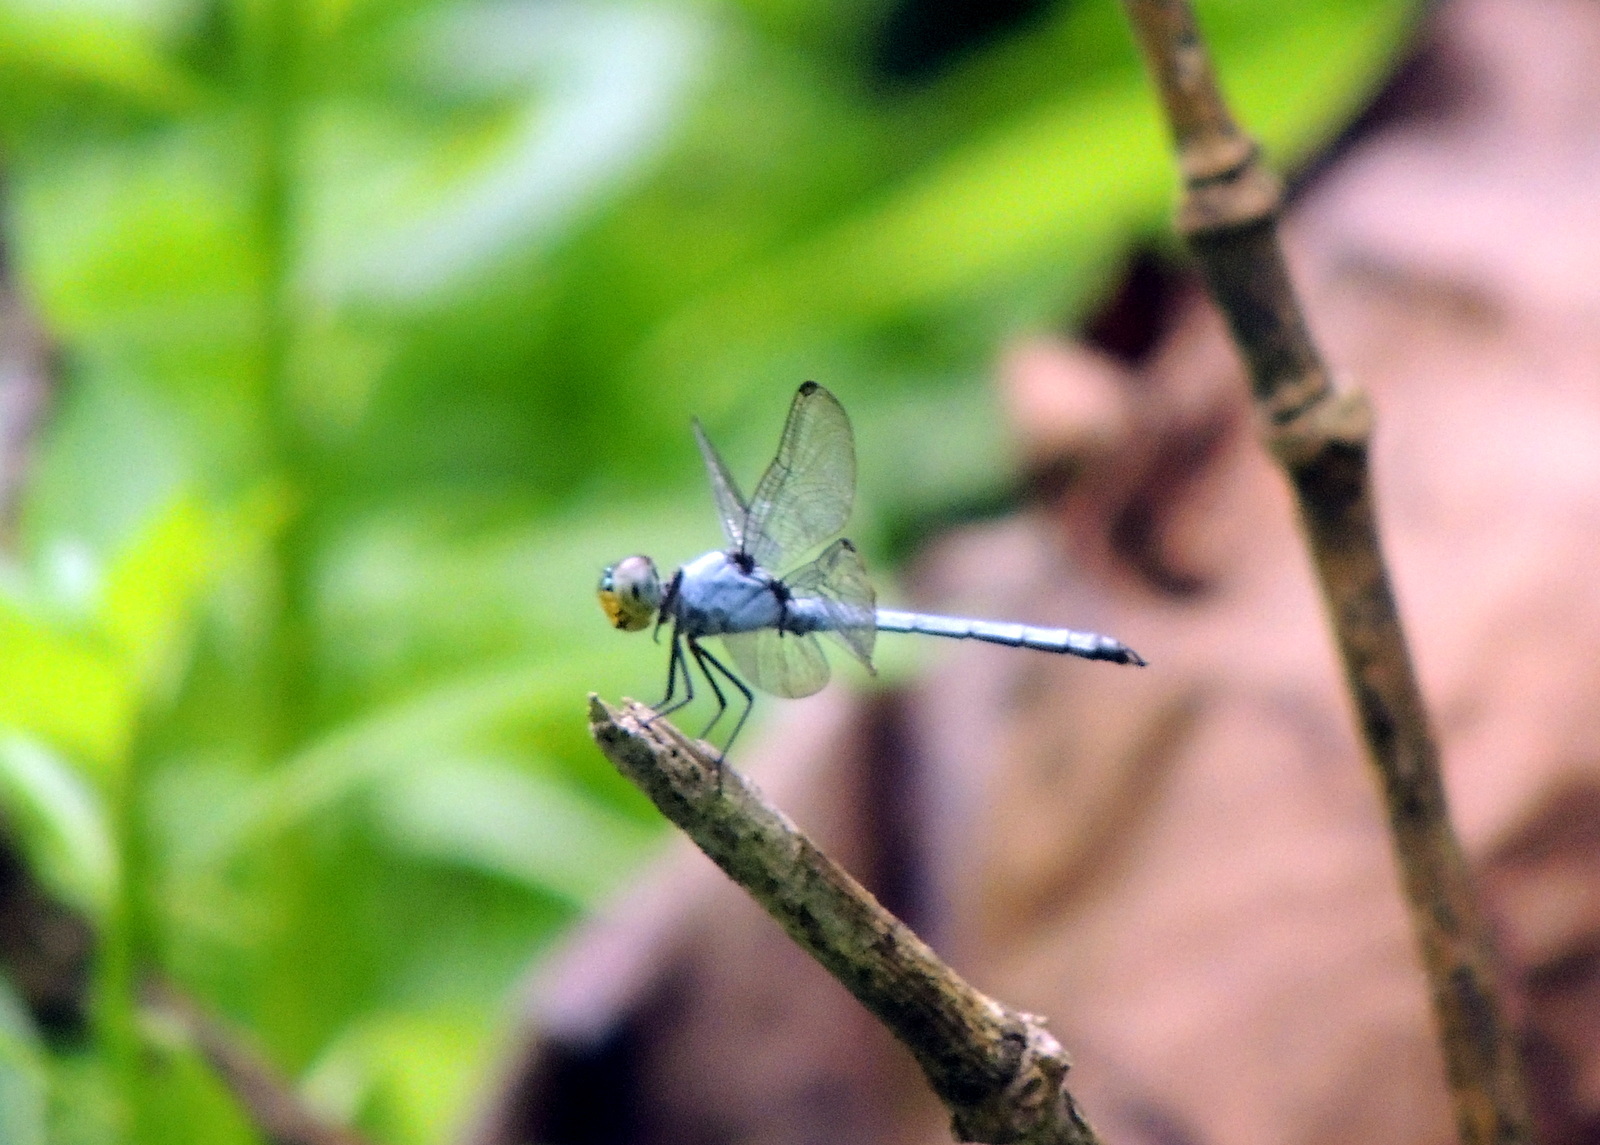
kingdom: Animalia
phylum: Arthropoda
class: Insecta
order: Odonata
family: Libellulidae
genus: Chalcostephia
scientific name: Chalcostephia flavifrons
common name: Inspector
